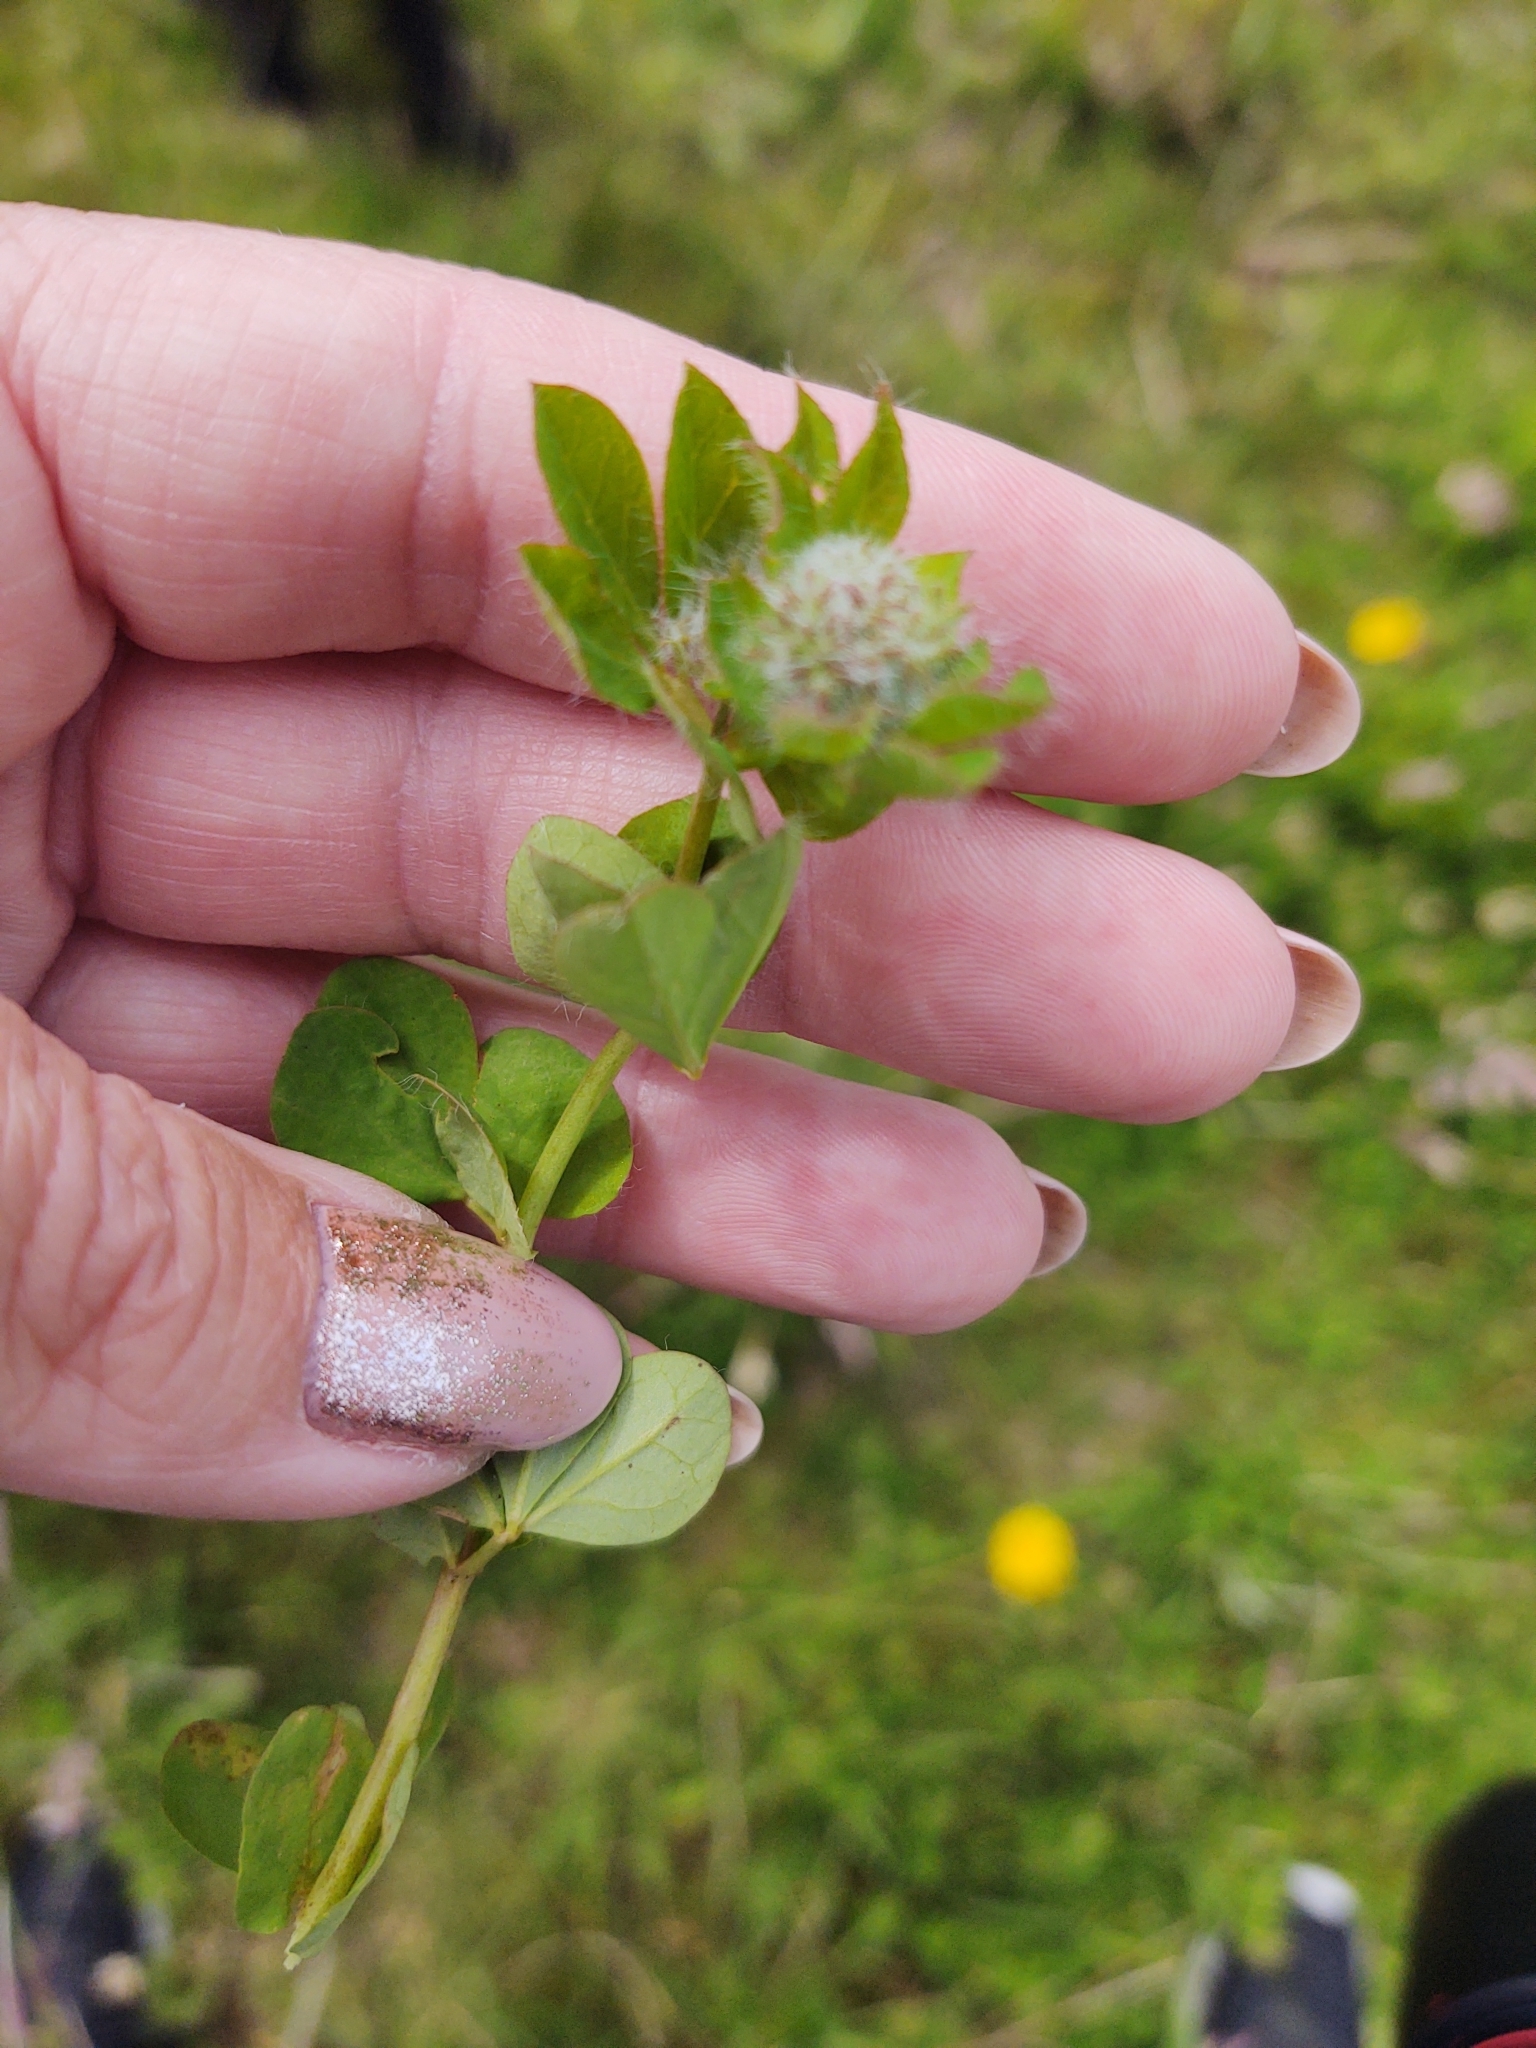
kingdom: Plantae
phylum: Tracheophyta
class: Magnoliopsida
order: Fabales
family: Fabaceae
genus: Lotus
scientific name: Lotus pedunculatus
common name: Greater birdsfoot-trefoil
